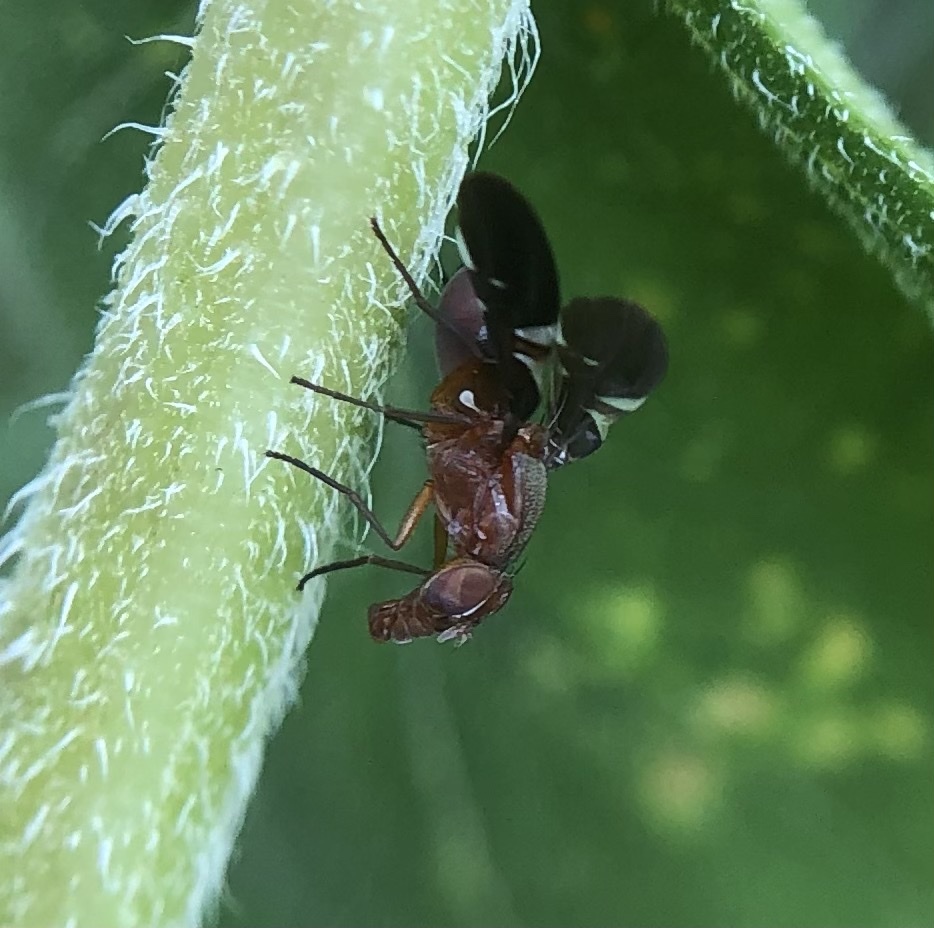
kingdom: Animalia
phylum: Arthropoda
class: Insecta
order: Diptera
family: Ulidiidae
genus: Delphinia
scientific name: Delphinia picta
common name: Common picture-winged fly
